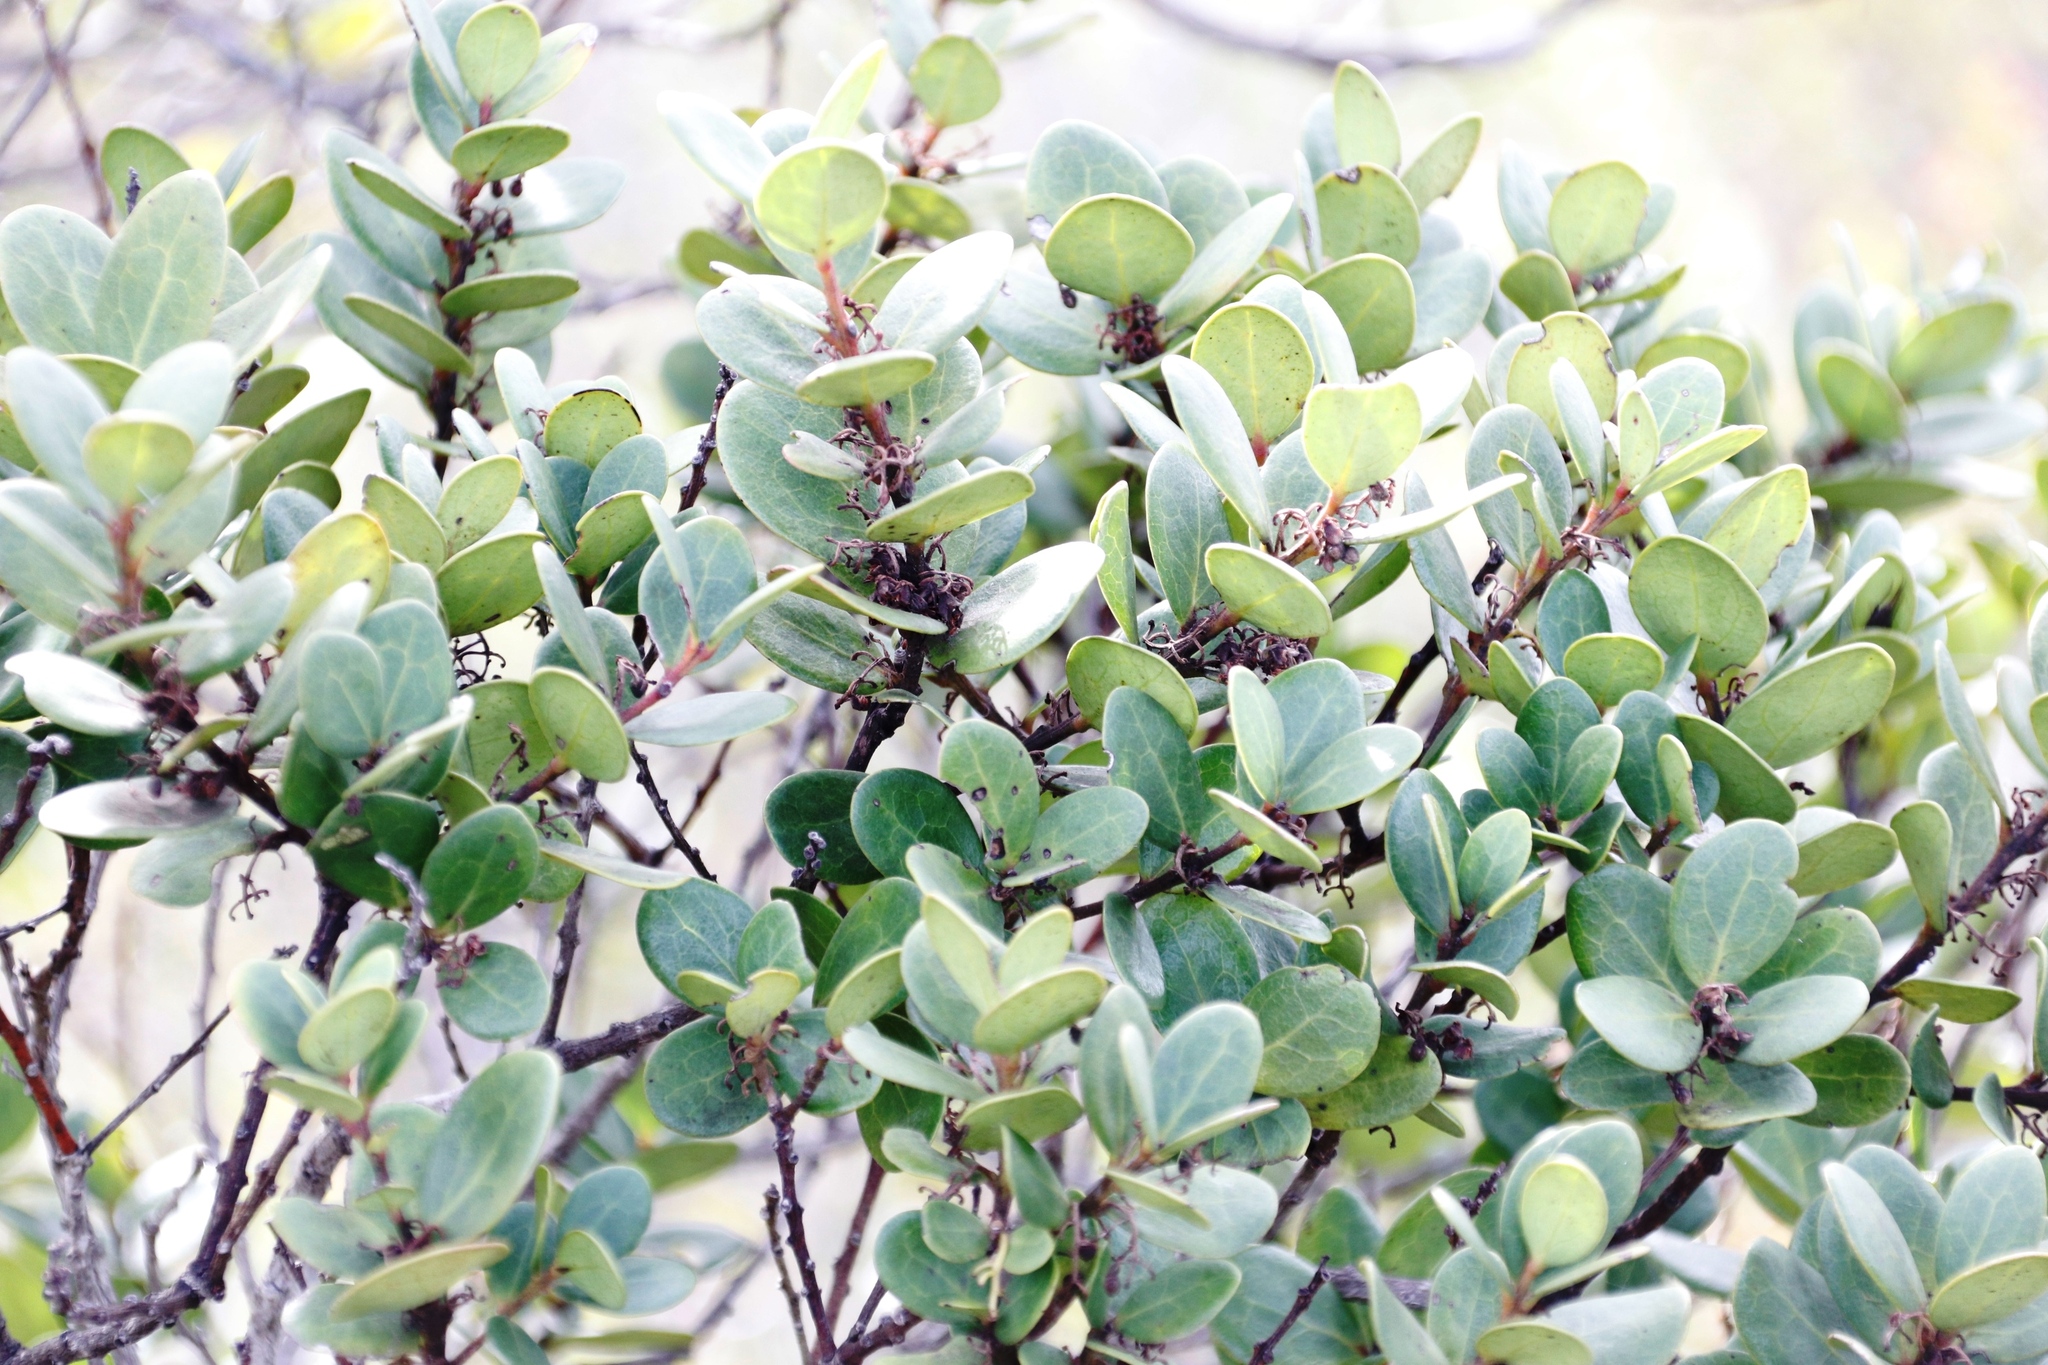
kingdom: Plantae
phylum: Tracheophyta
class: Magnoliopsida
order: Celastrales
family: Celastraceae
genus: Maurocenia
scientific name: Maurocenia frangula
